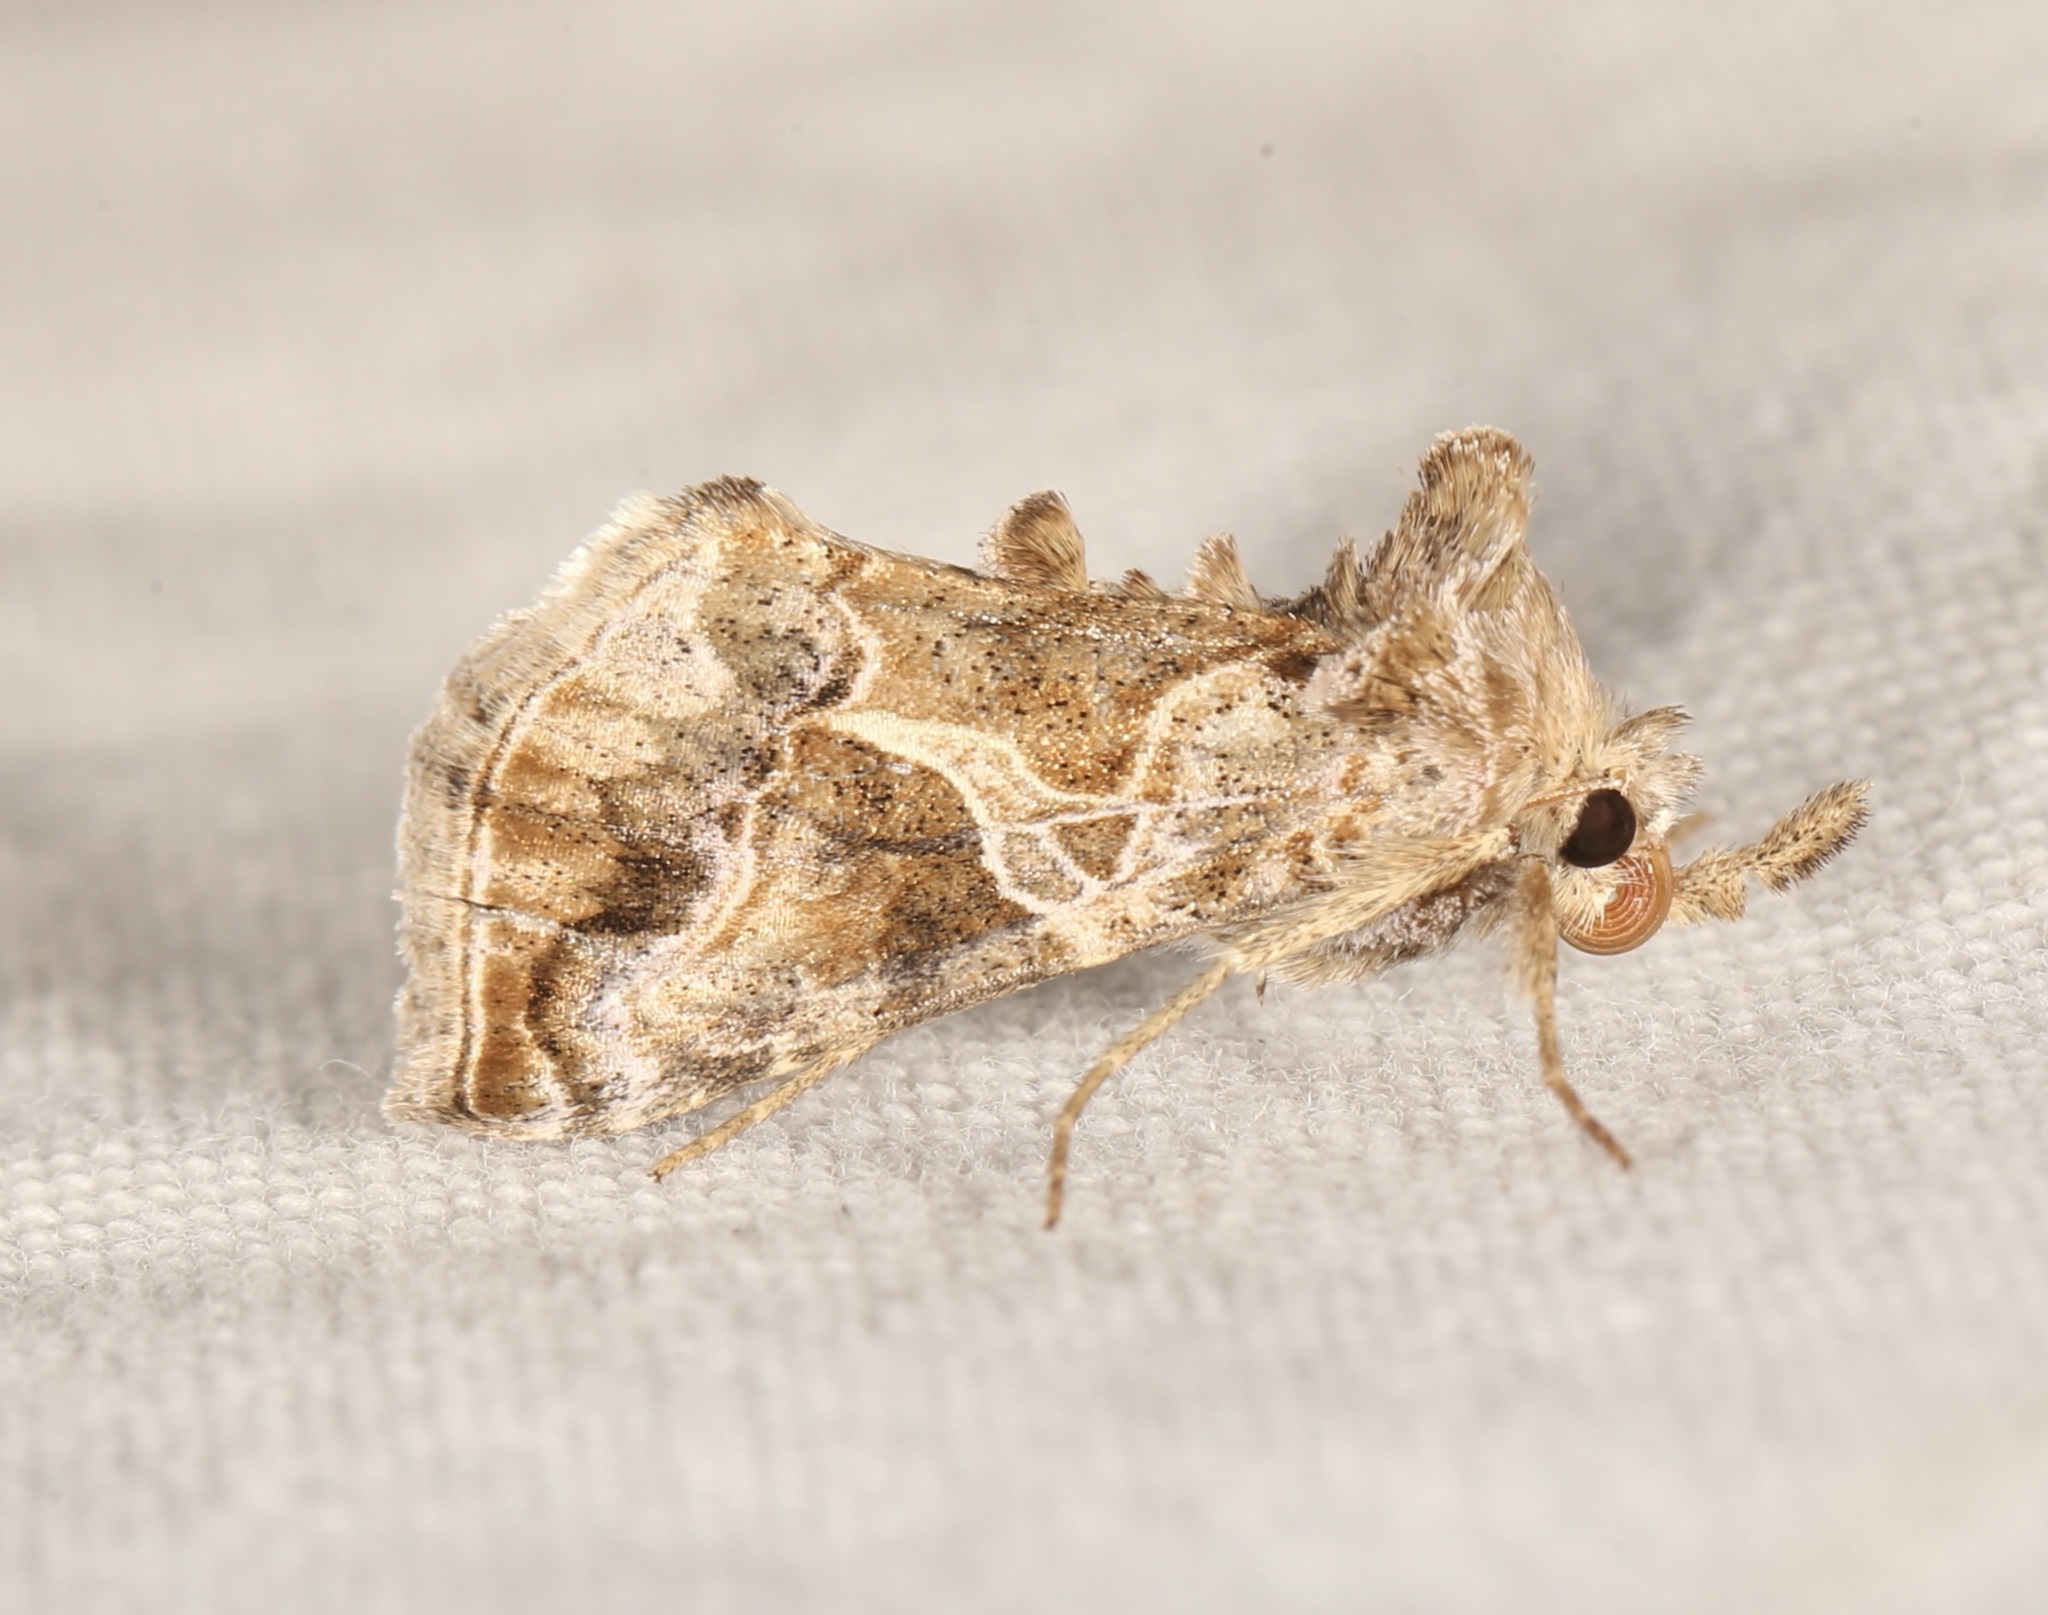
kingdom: Animalia
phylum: Arthropoda
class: Insecta
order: Lepidoptera
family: Noctuidae
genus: Polychrysia
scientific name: Polychrysia morigera
